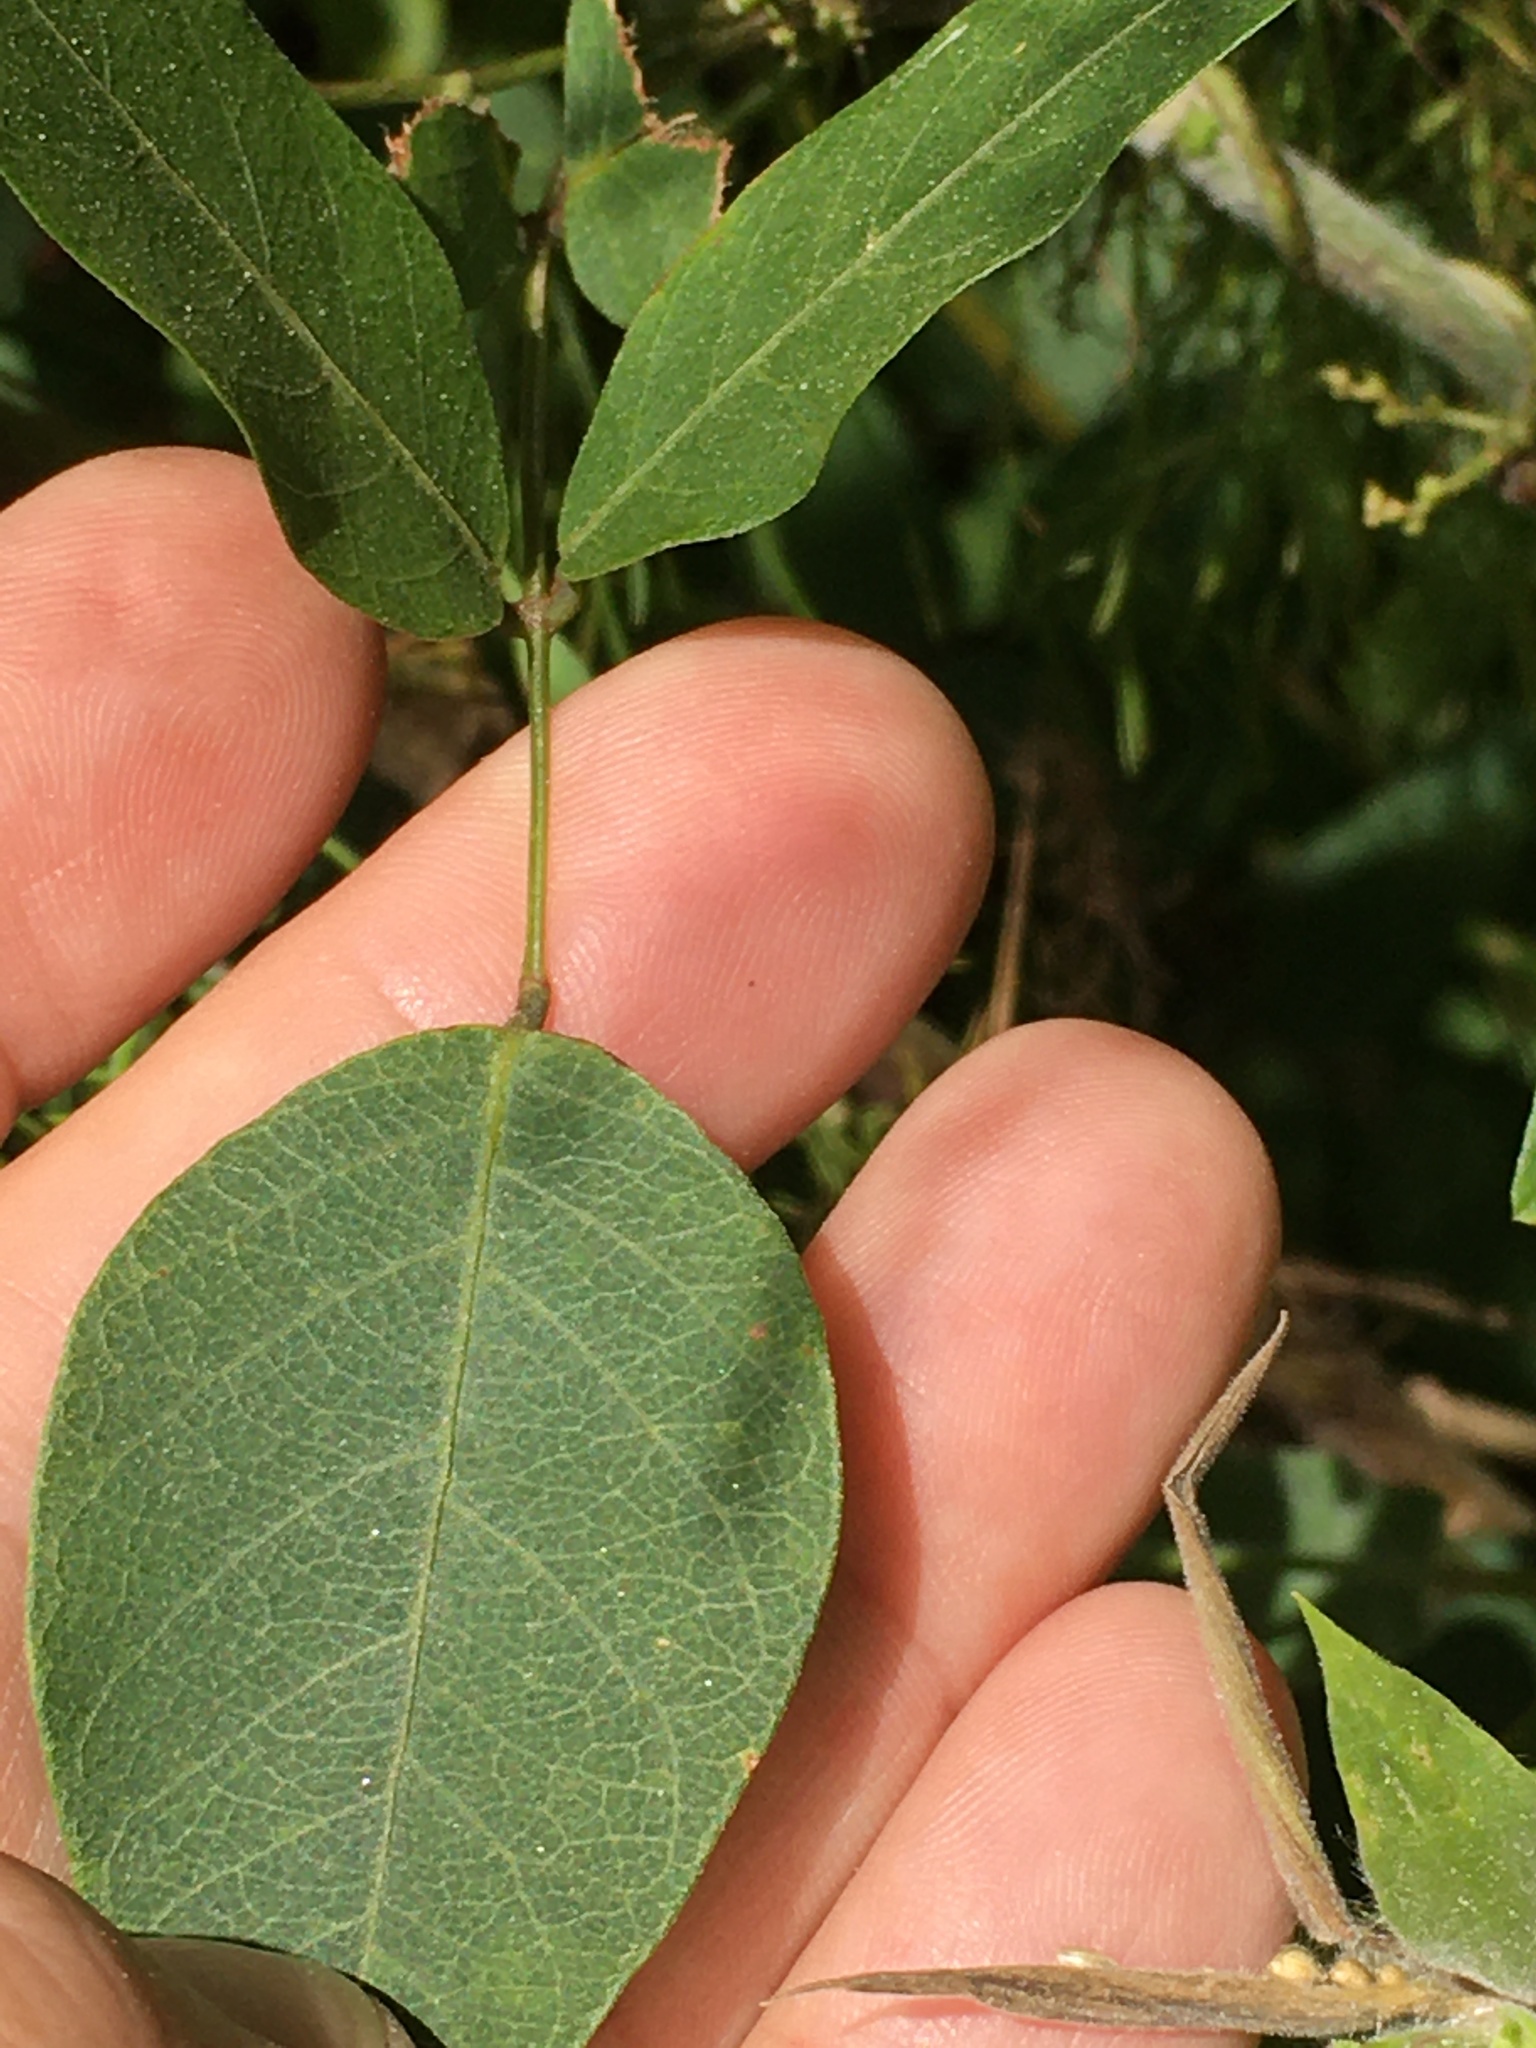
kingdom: Plantae
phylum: Tracheophyta
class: Magnoliopsida
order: Fabales
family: Fabaceae
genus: Apios
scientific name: Apios americana
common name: American potato-bean
